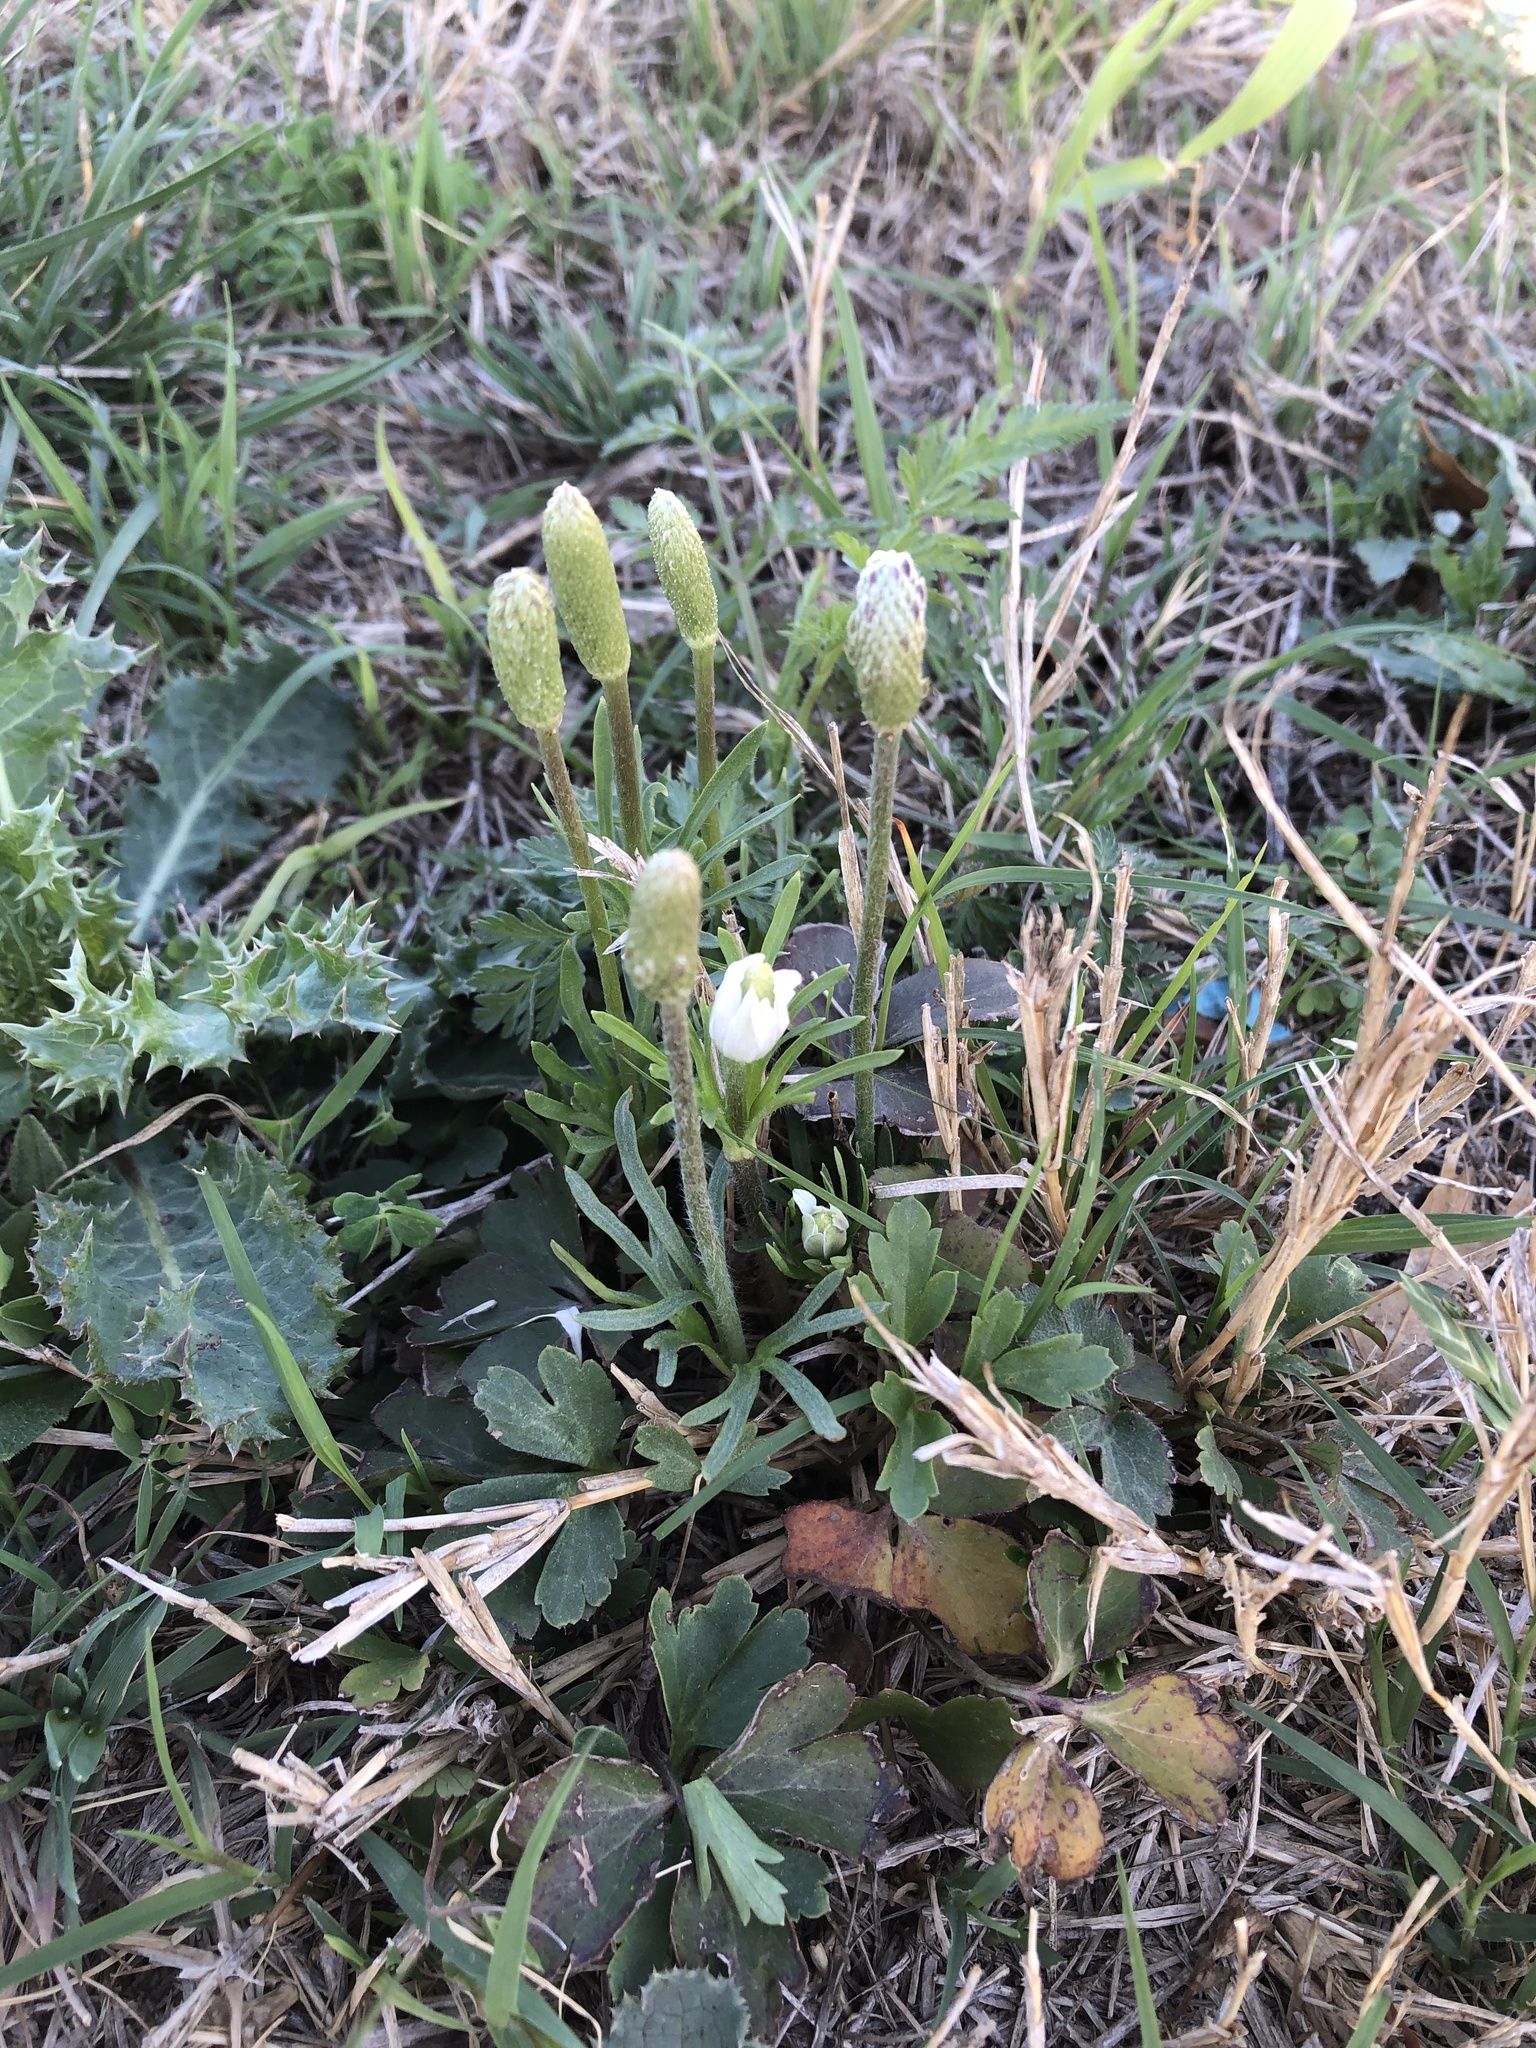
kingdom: Plantae
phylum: Tracheophyta
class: Magnoliopsida
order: Ranunculales
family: Ranunculaceae
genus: Anemone
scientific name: Anemone berlandieri
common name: Ten-petal anemone
